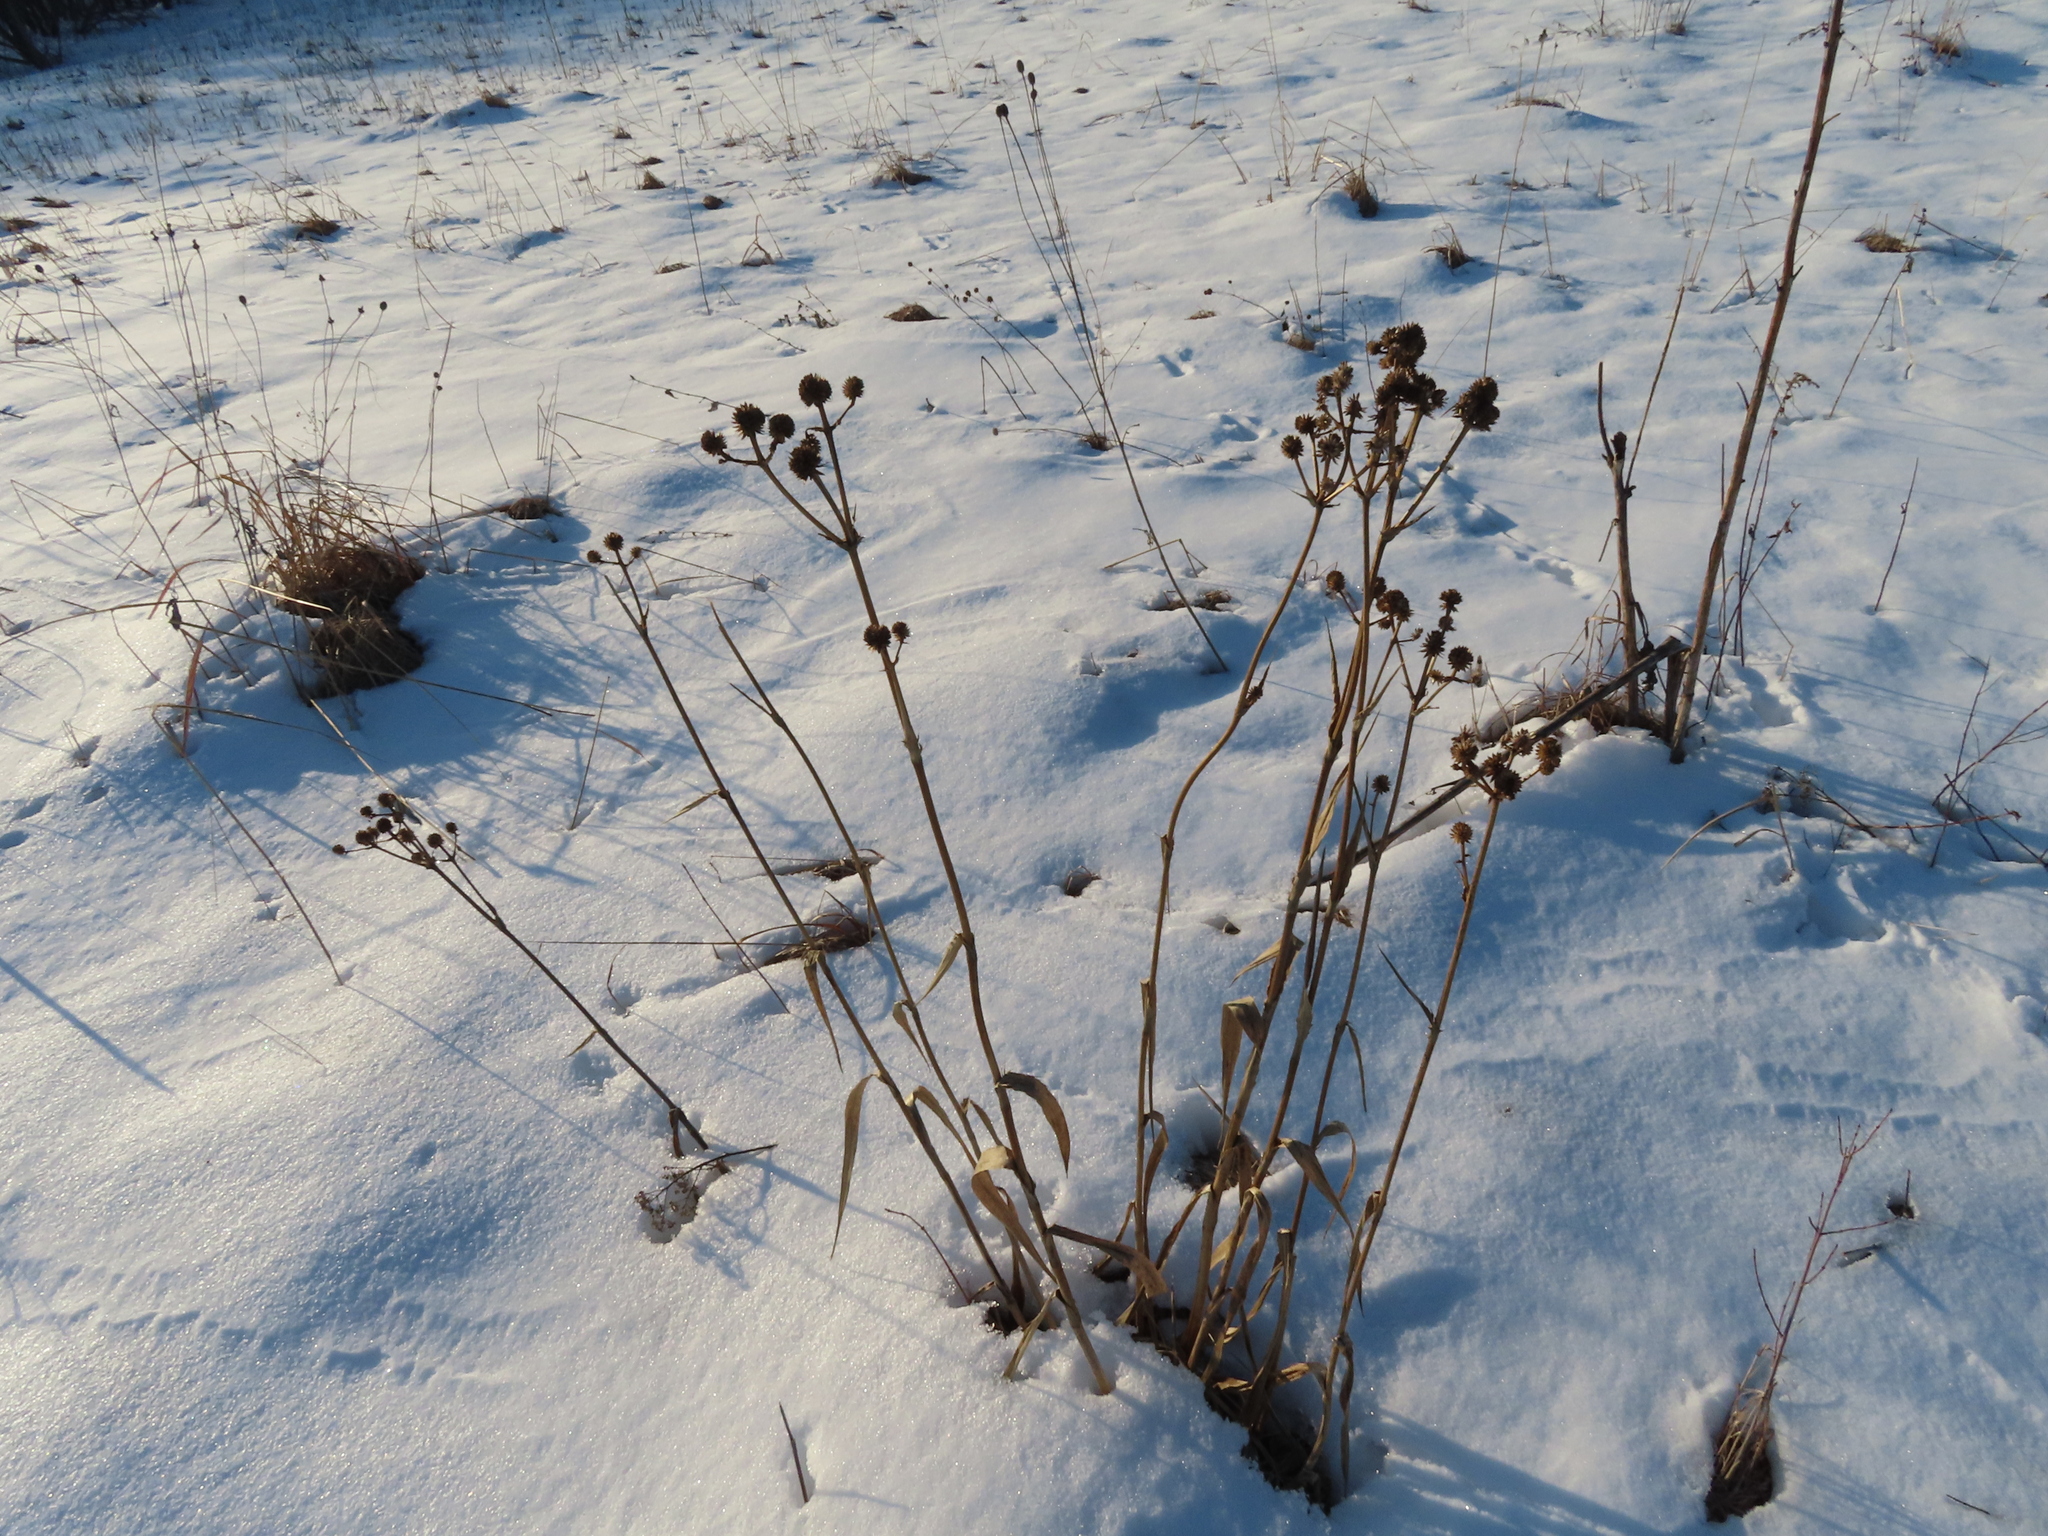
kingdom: Plantae
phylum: Tracheophyta
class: Magnoliopsida
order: Apiales
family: Apiaceae
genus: Eryngium
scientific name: Eryngium yuccifolium
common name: Button eryngo
